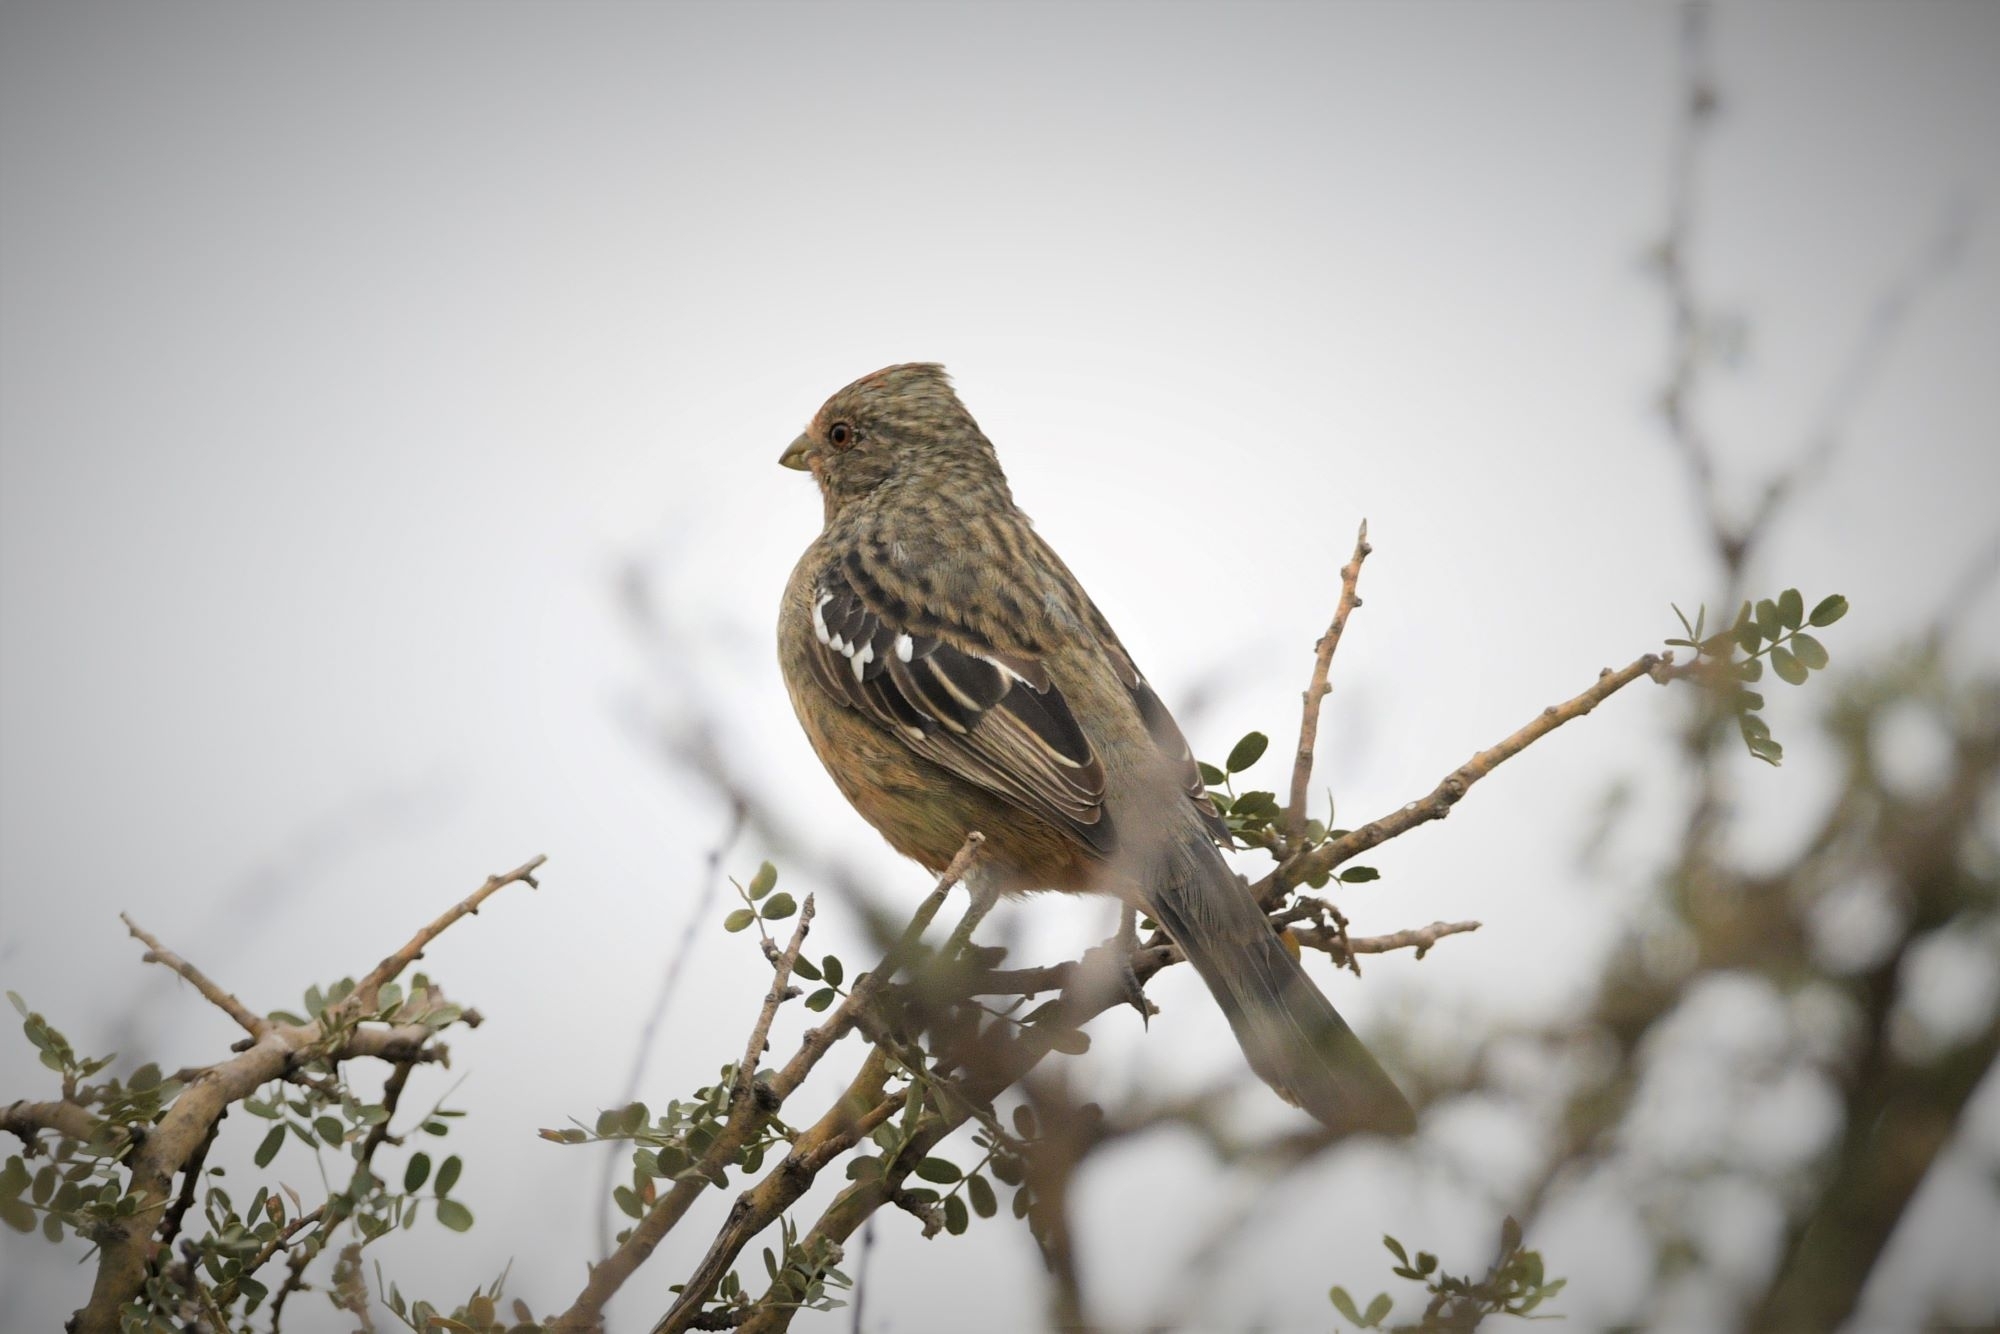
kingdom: Animalia
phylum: Chordata
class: Aves
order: Passeriformes
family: Cotingidae
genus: Phytotoma
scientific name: Phytotoma rutila
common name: White-tipped plantcutter
